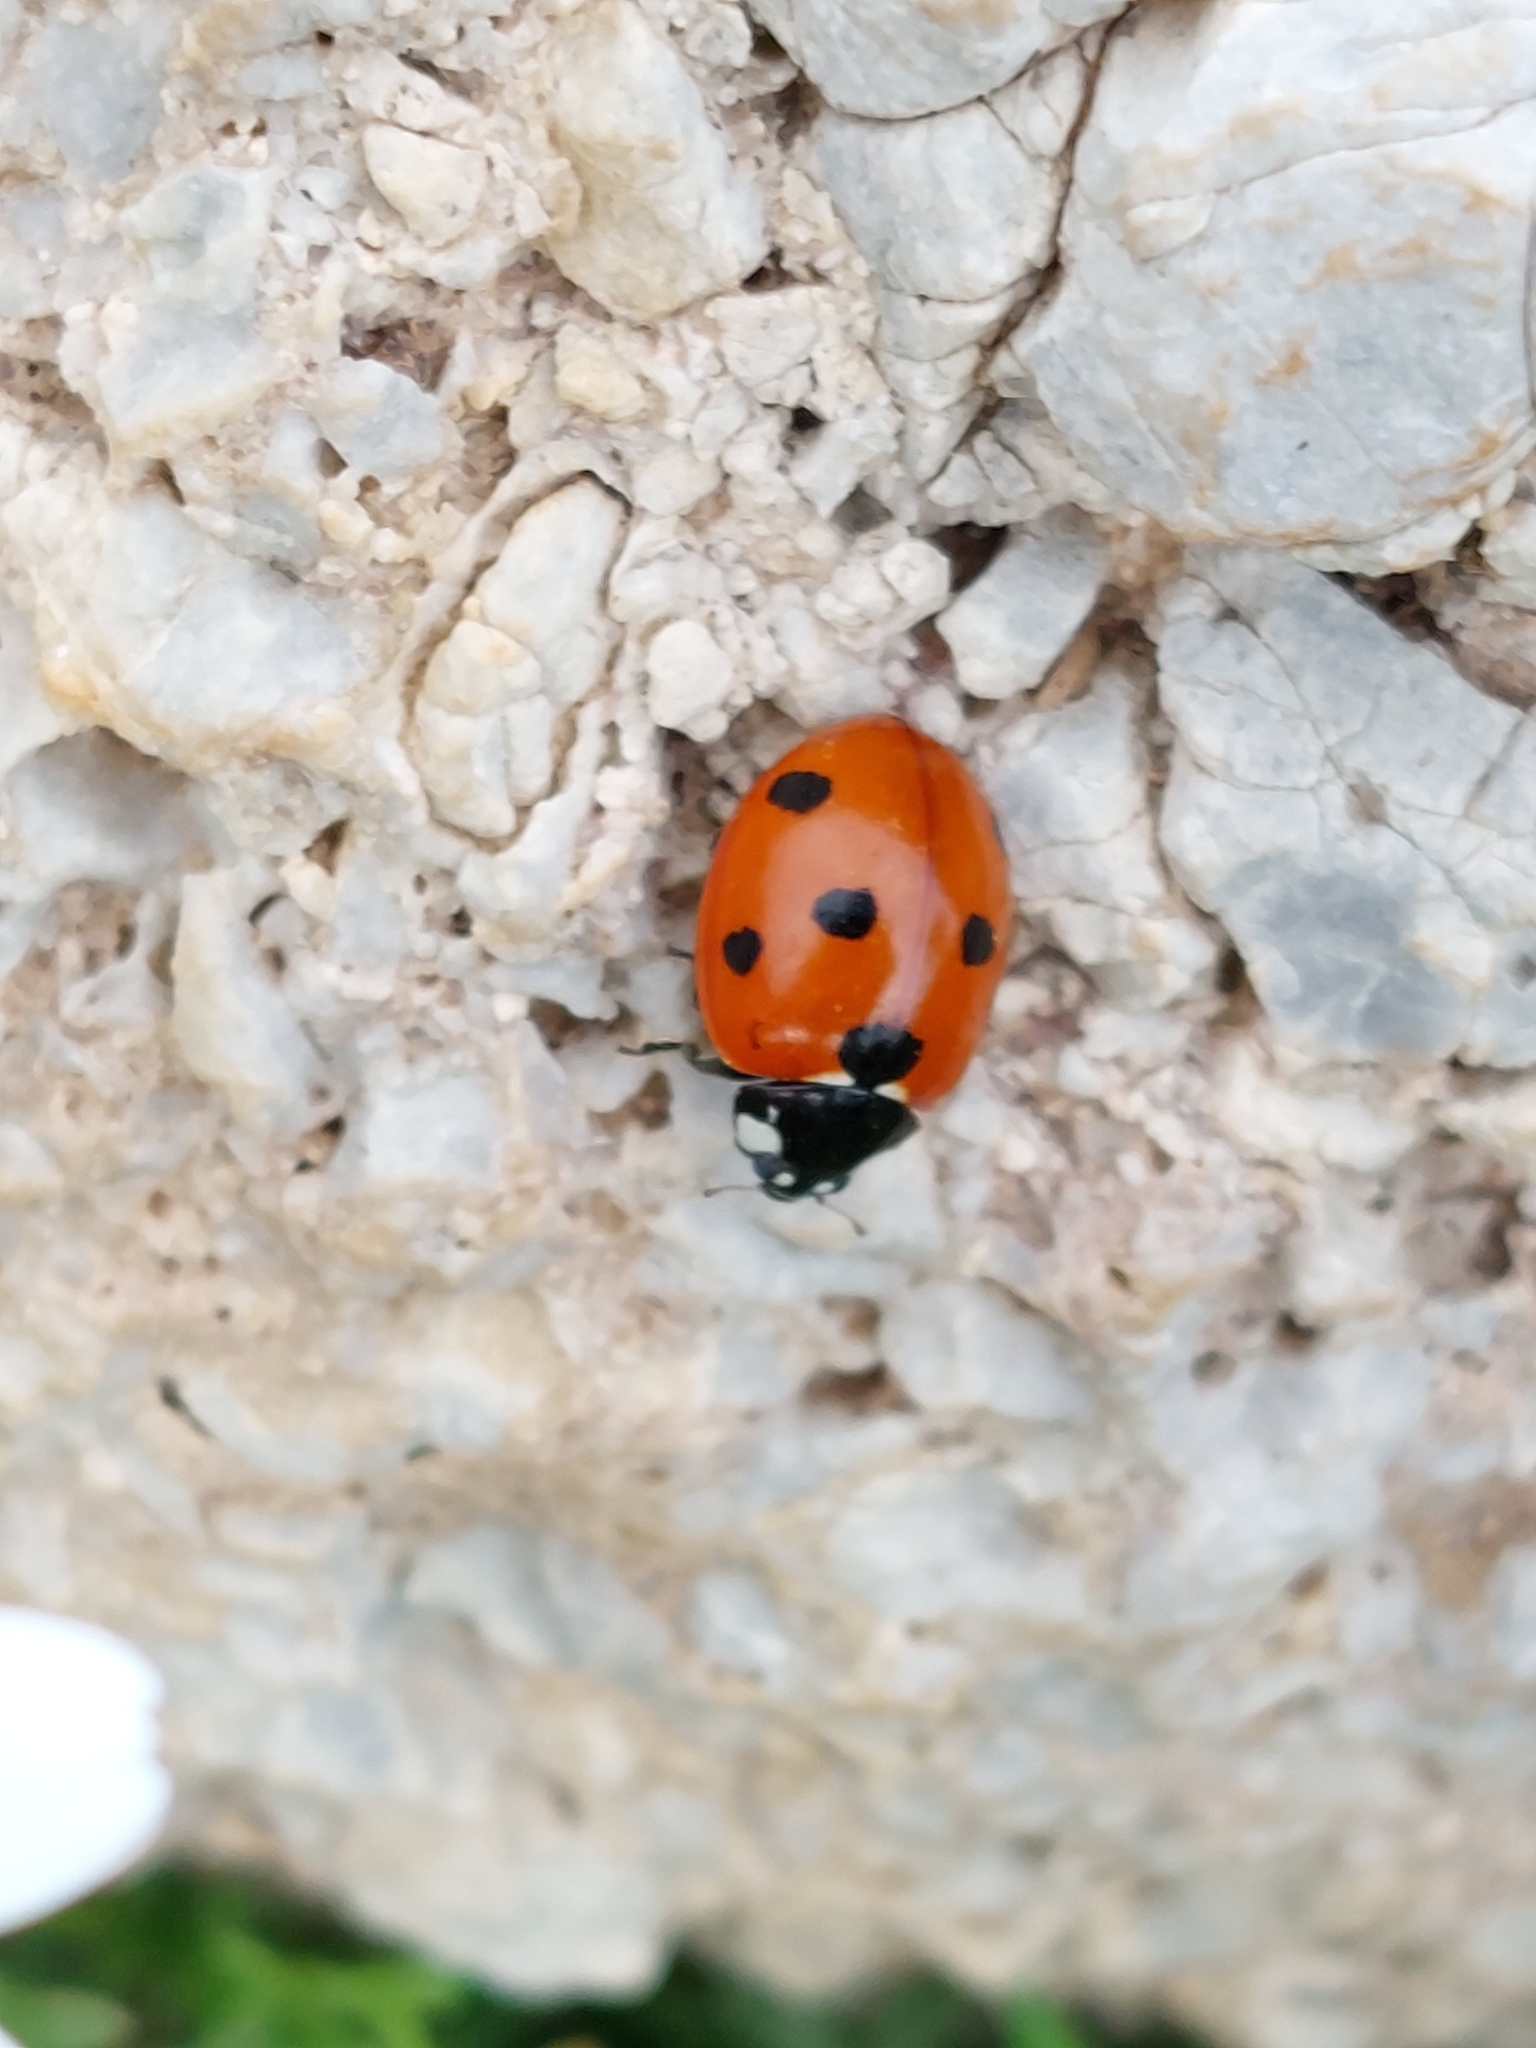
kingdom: Animalia
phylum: Arthropoda
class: Insecta
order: Coleoptera
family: Coccinellidae
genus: Coccinella
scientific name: Coccinella septempunctata
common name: Sevenspotted lady beetle
